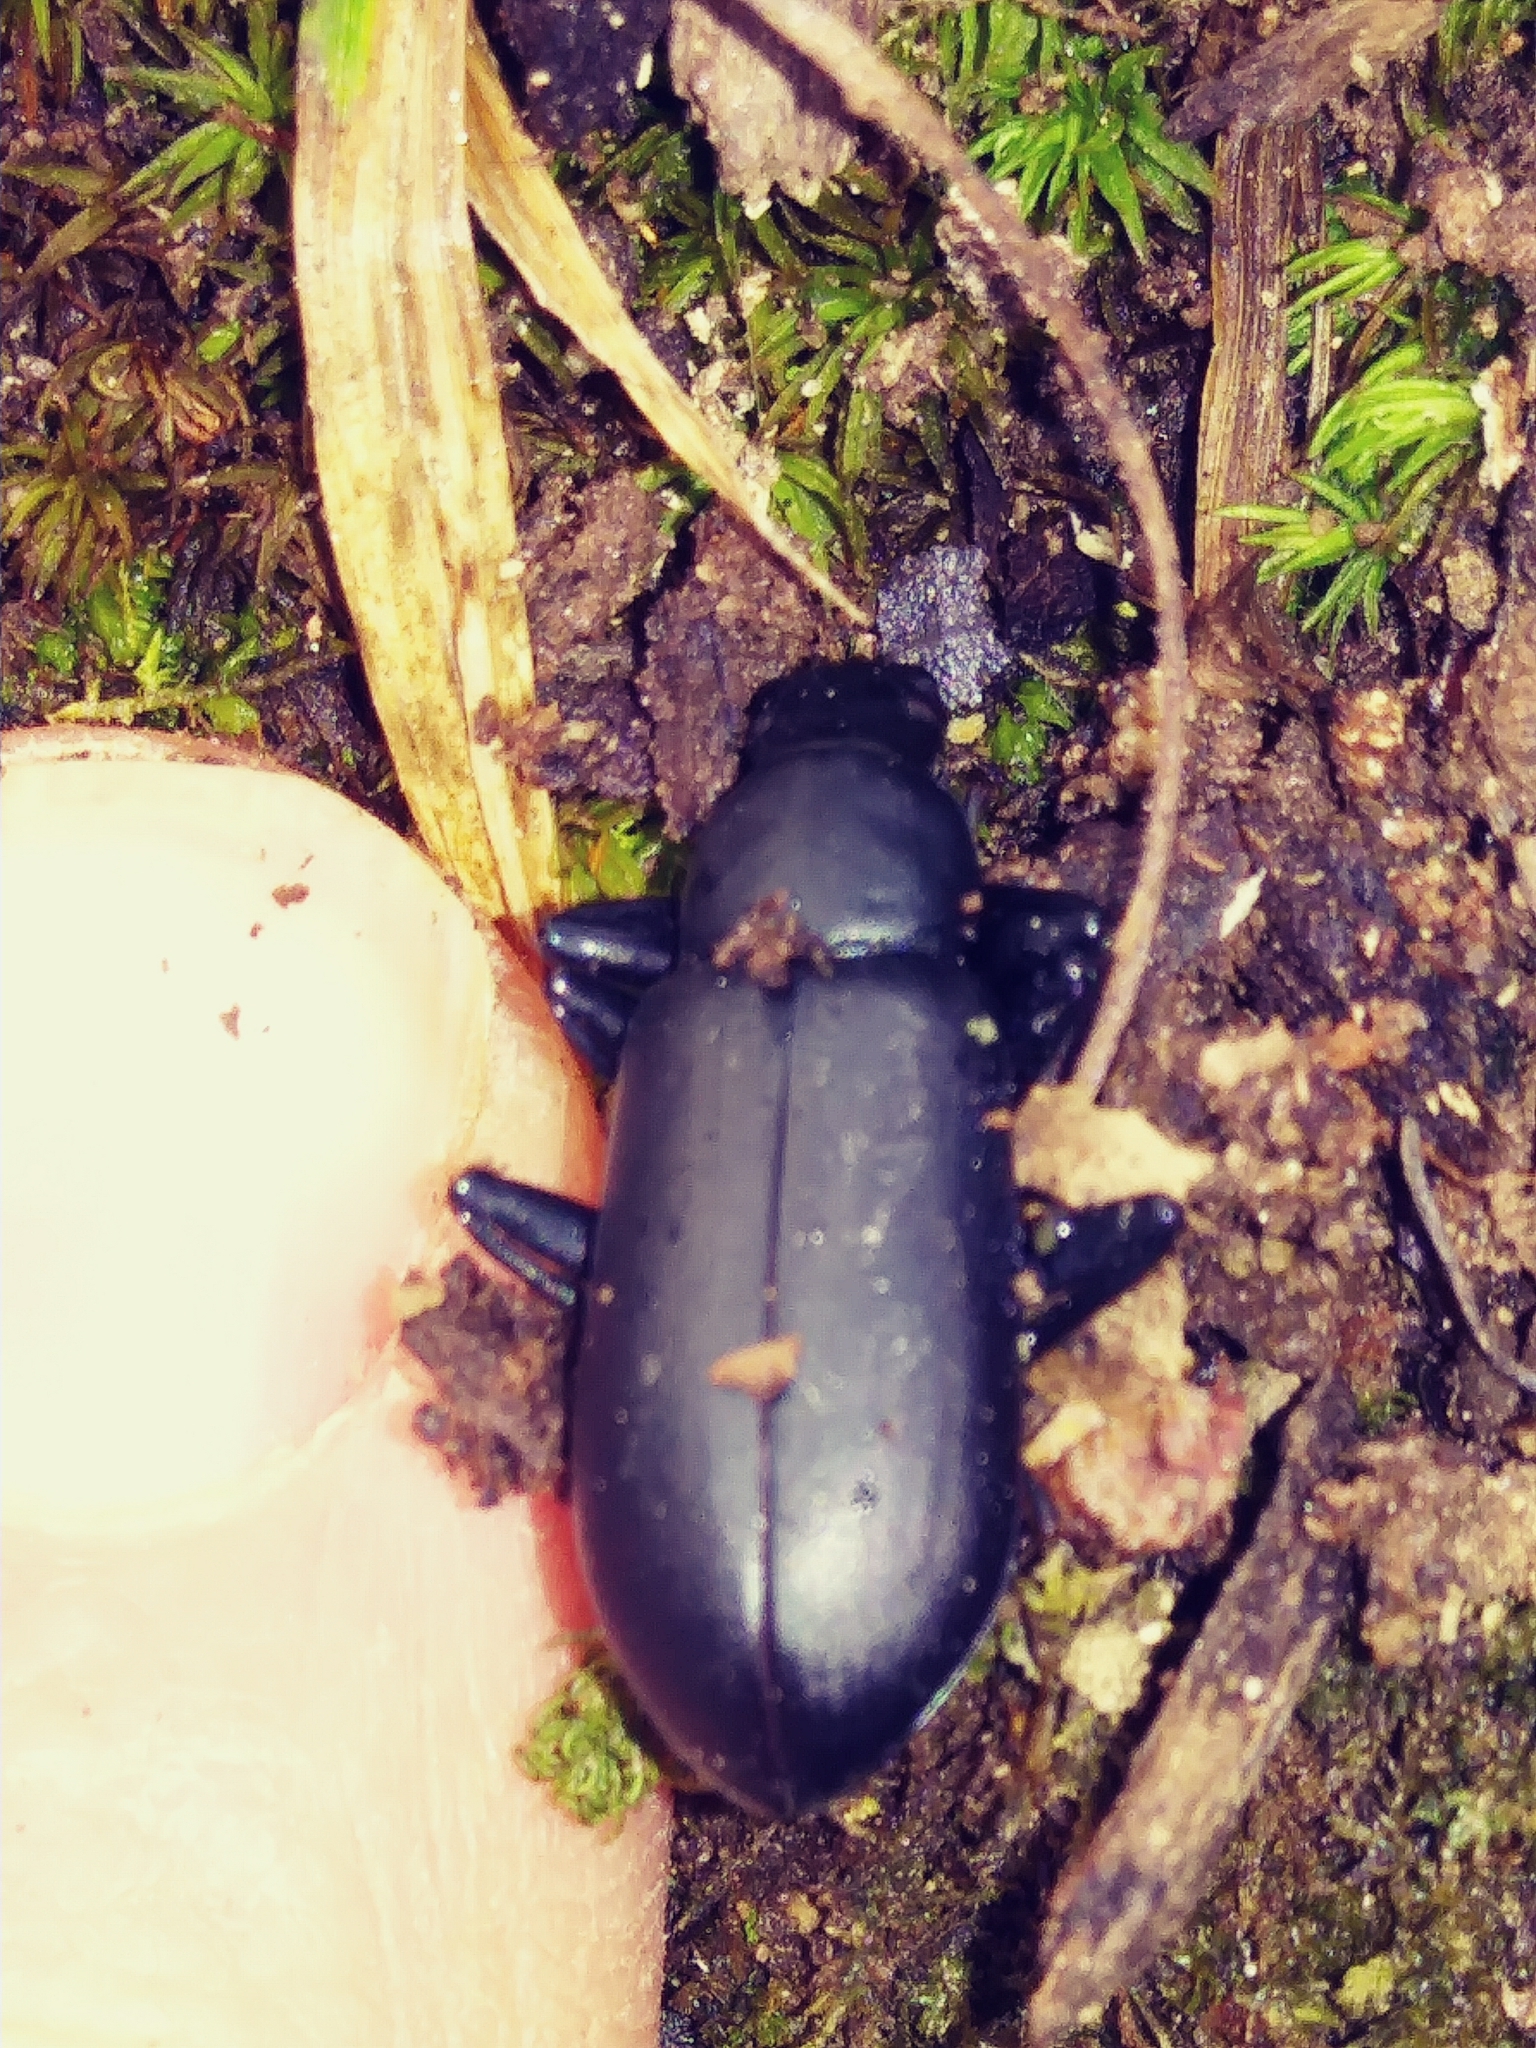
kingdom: Animalia
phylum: Arthropoda
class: Insecta
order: Coleoptera
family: Tenebrionidae
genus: Alobates
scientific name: Alobates
